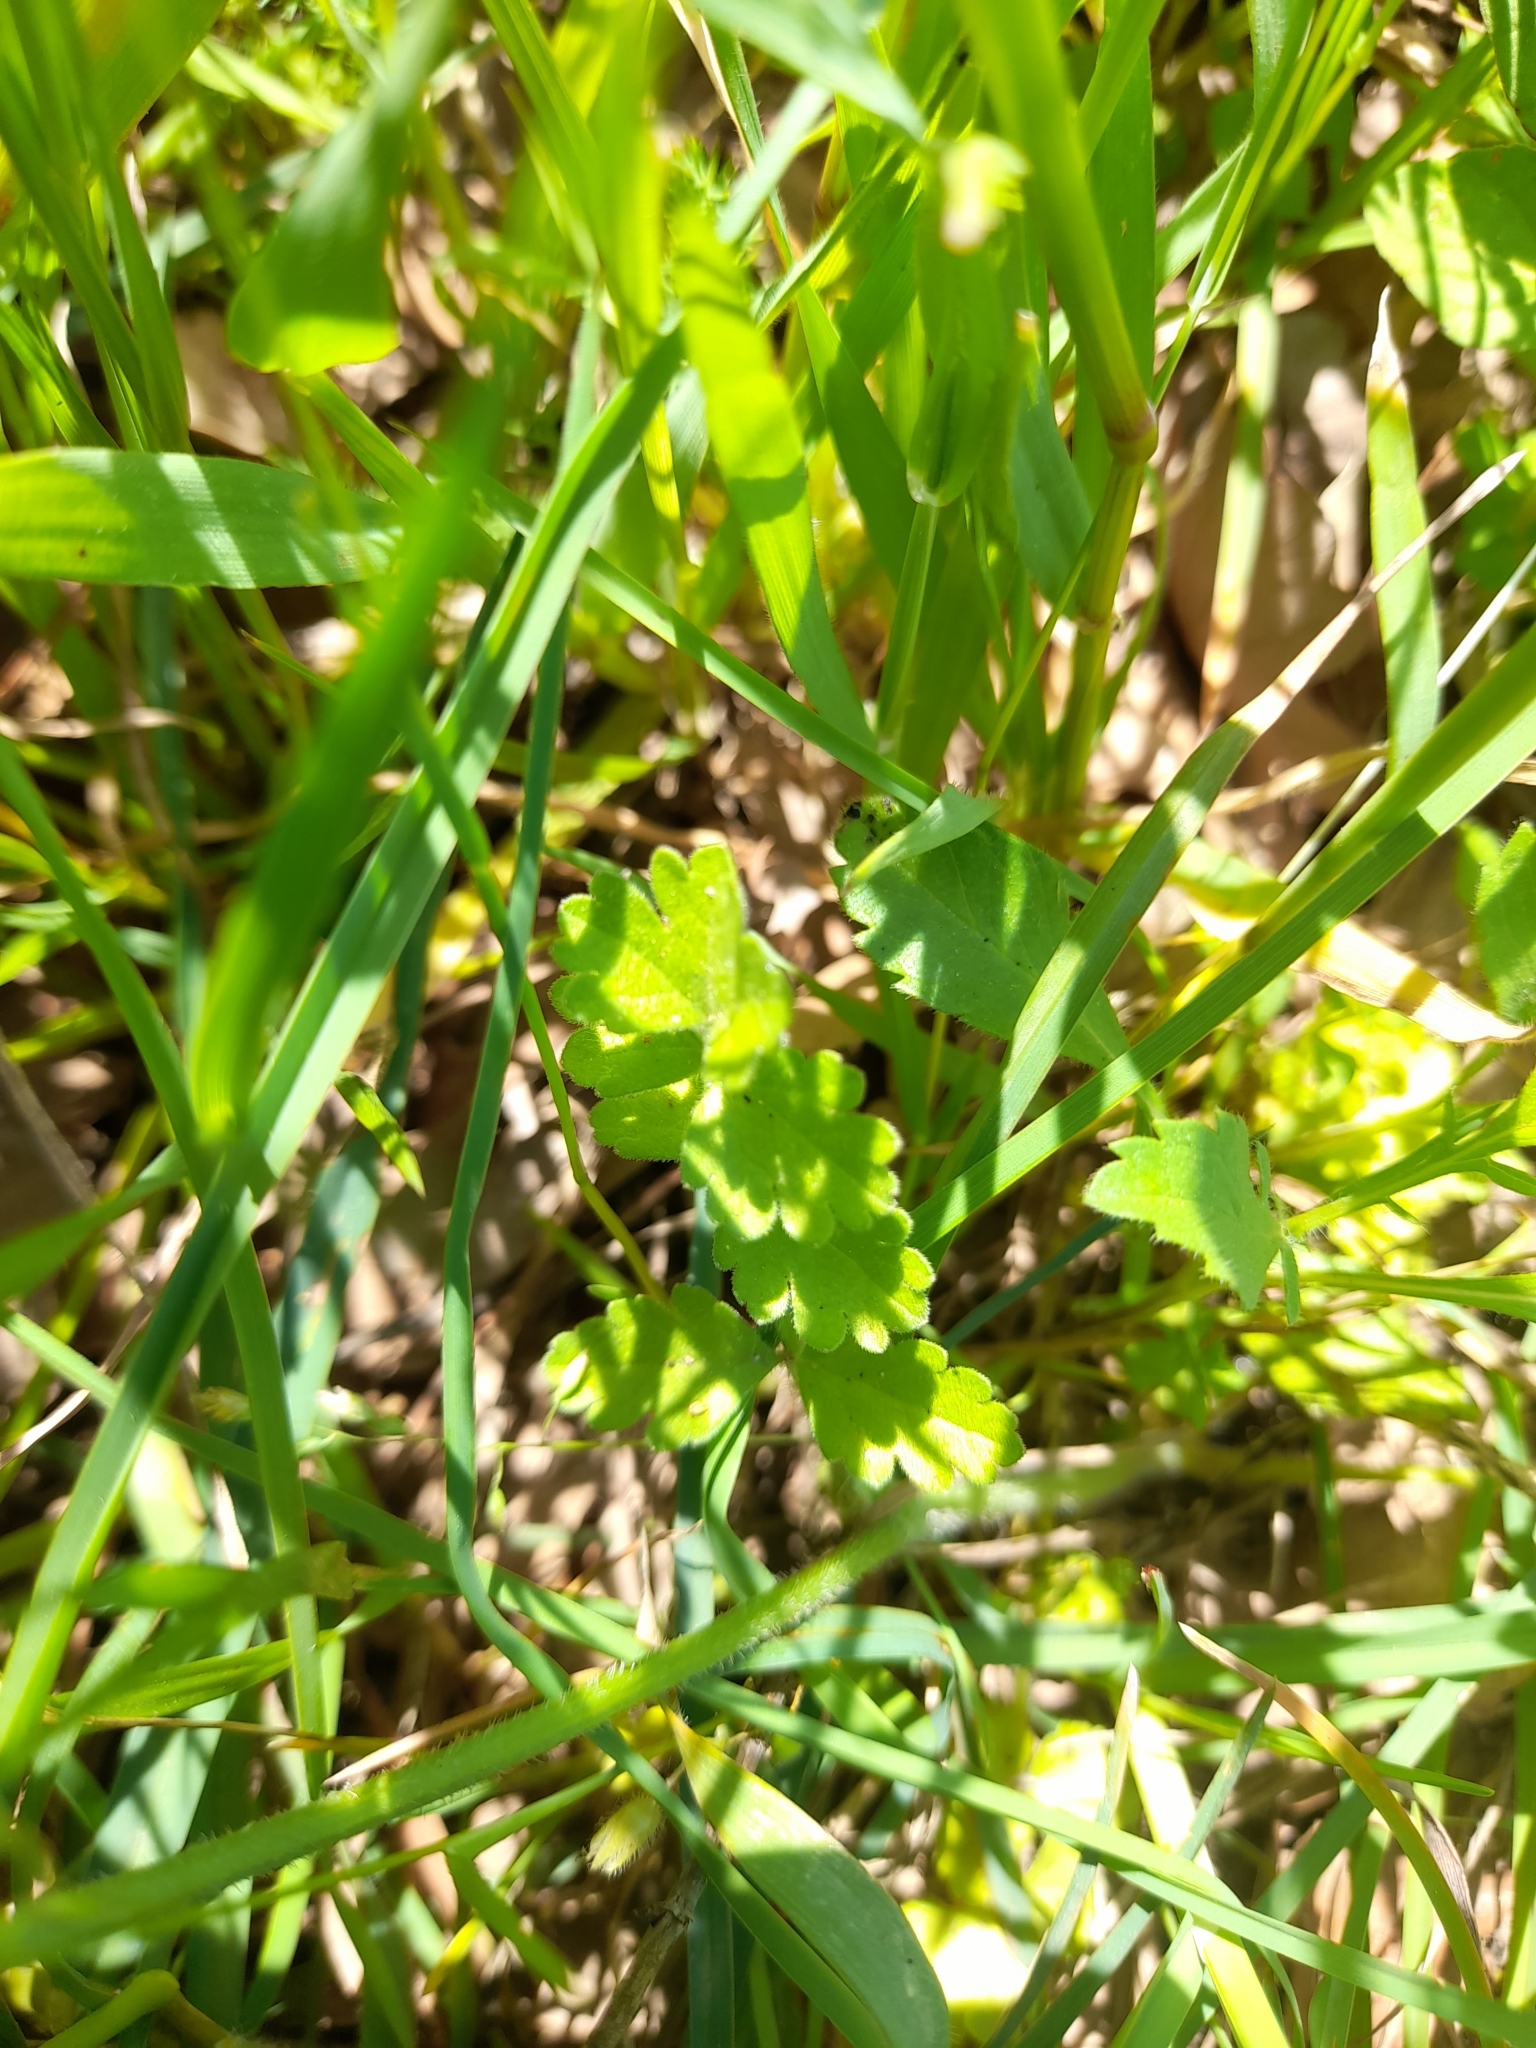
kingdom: Plantae
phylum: Tracheophyta
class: Magnoliopsida
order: Apiales
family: Apiaceae
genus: Tordylium
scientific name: Tordylium apulum
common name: Mediterranean hartwort
